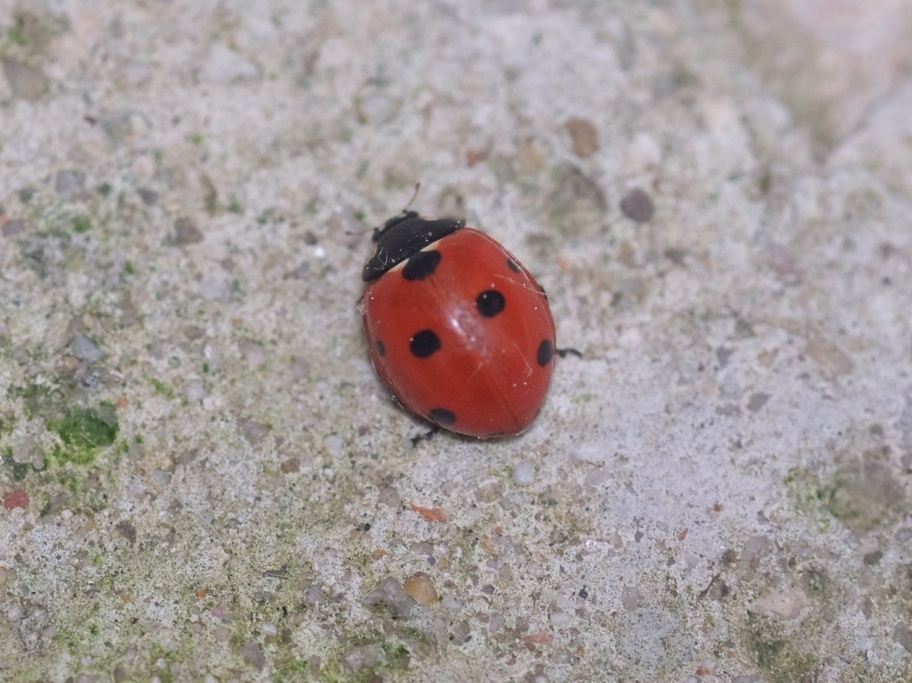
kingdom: Animalia
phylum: Arthropoda
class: Insecta
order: Coleoptera
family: Coccinellidae
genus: Coccinella
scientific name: Coccinella septempunctata
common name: Sevenspotted lady beetle
